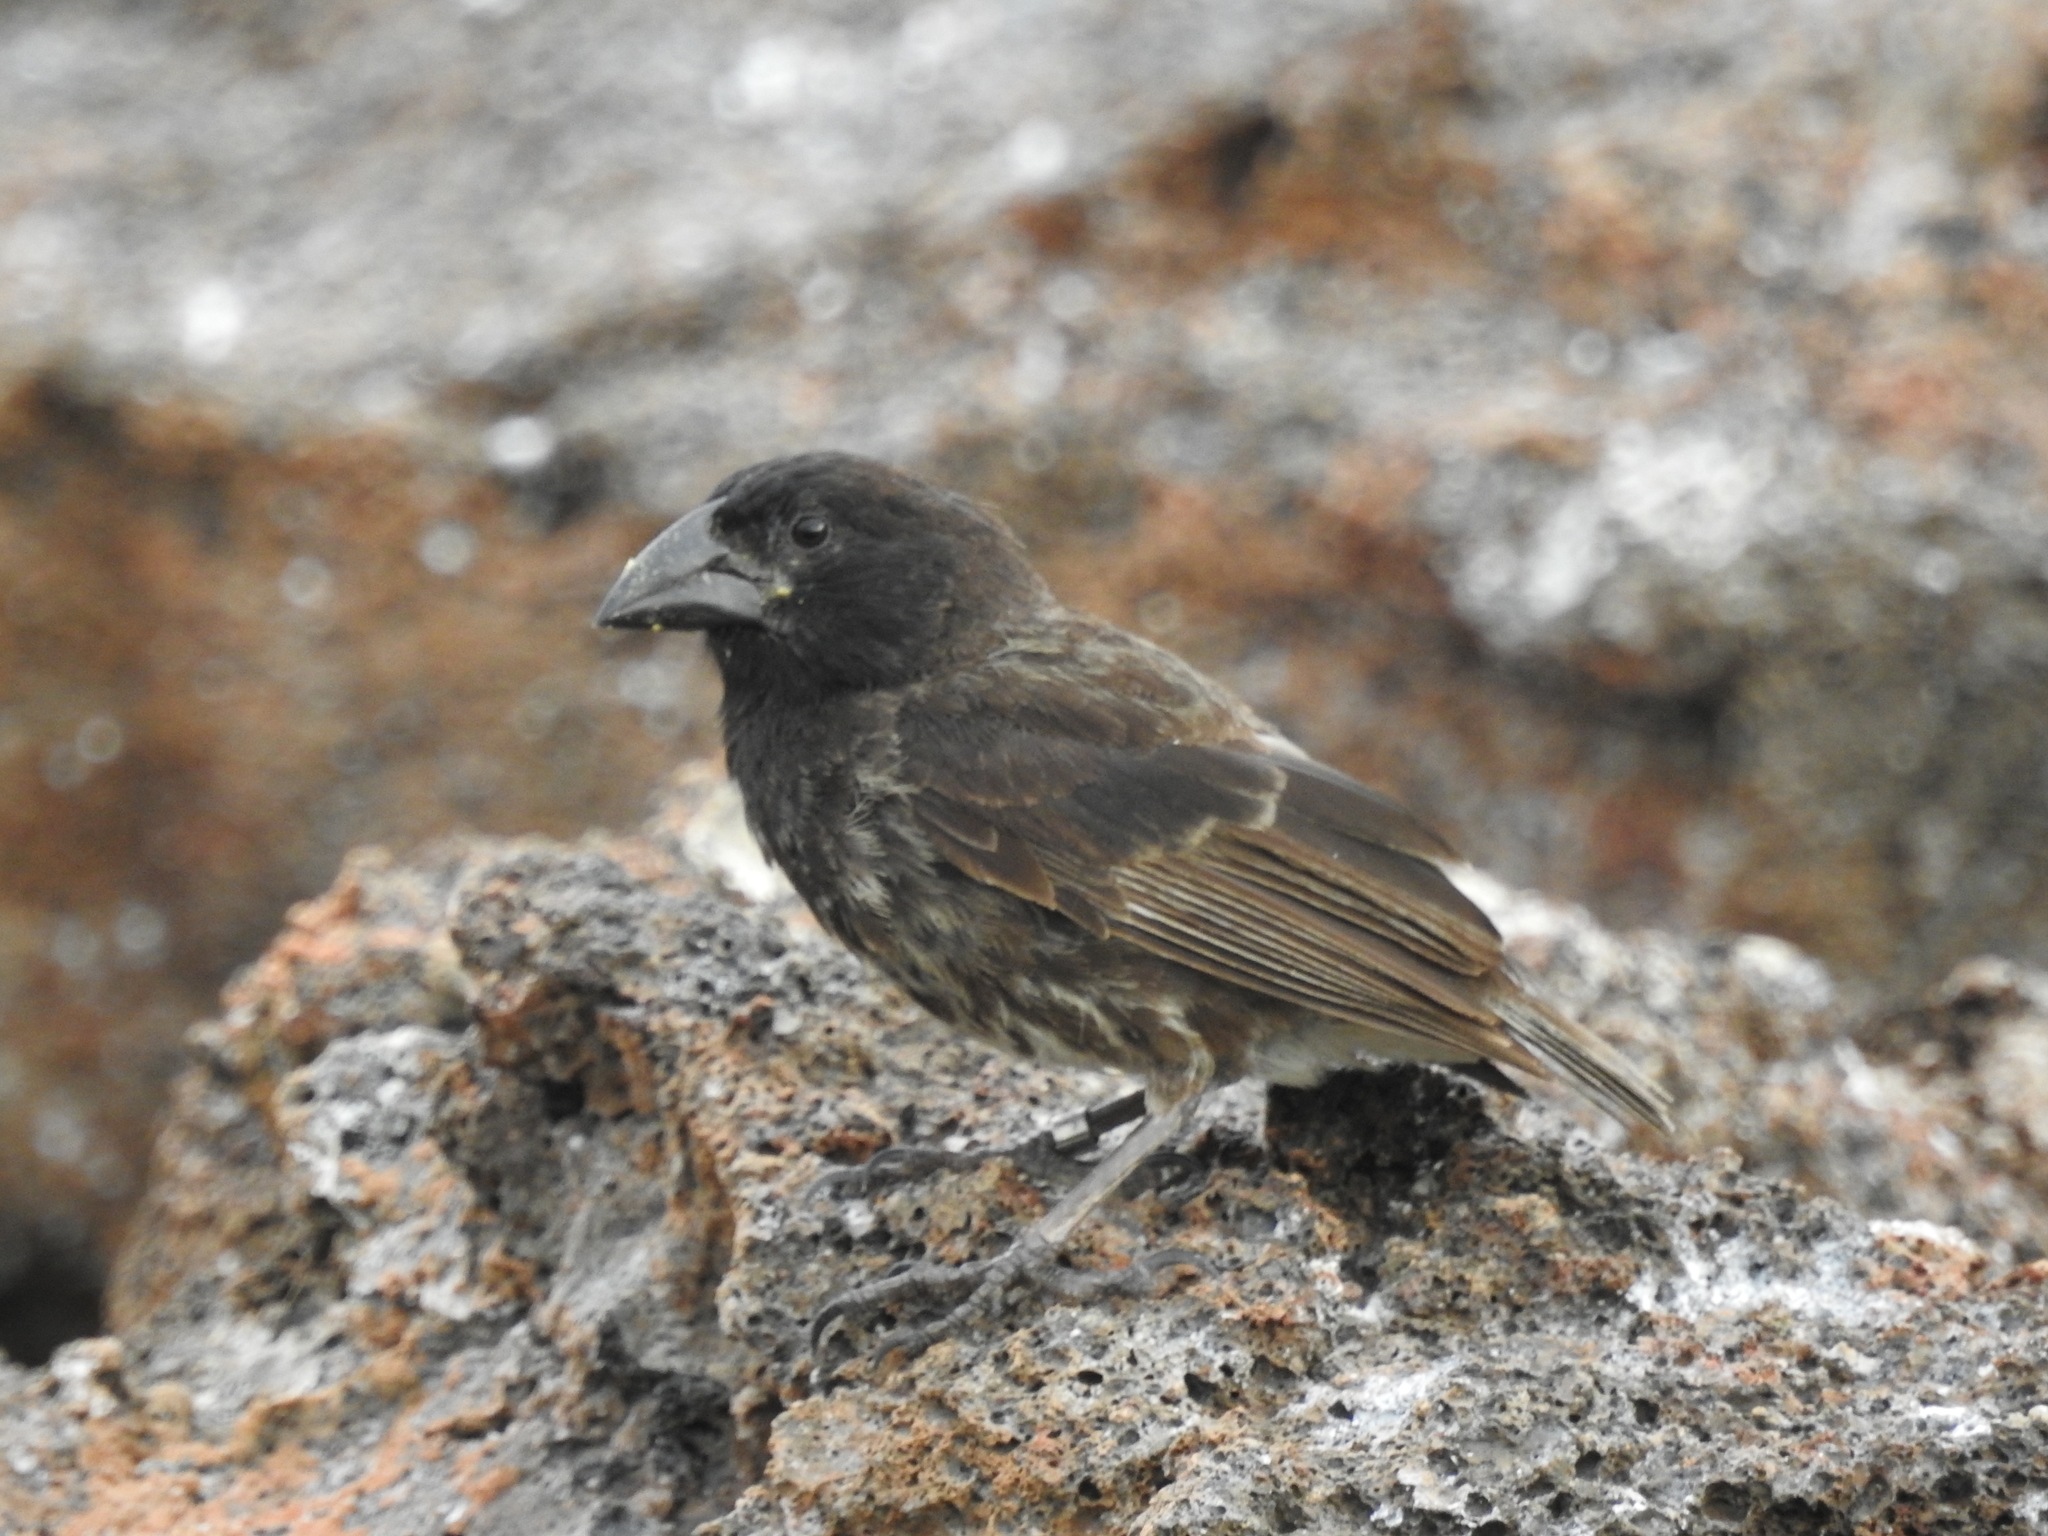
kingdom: Animalia
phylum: Chordata
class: Aves
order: Passeriformes
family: Thraupidae
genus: Geospiza
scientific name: Geospiza propinqua
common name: Genovesa cactus-finch
